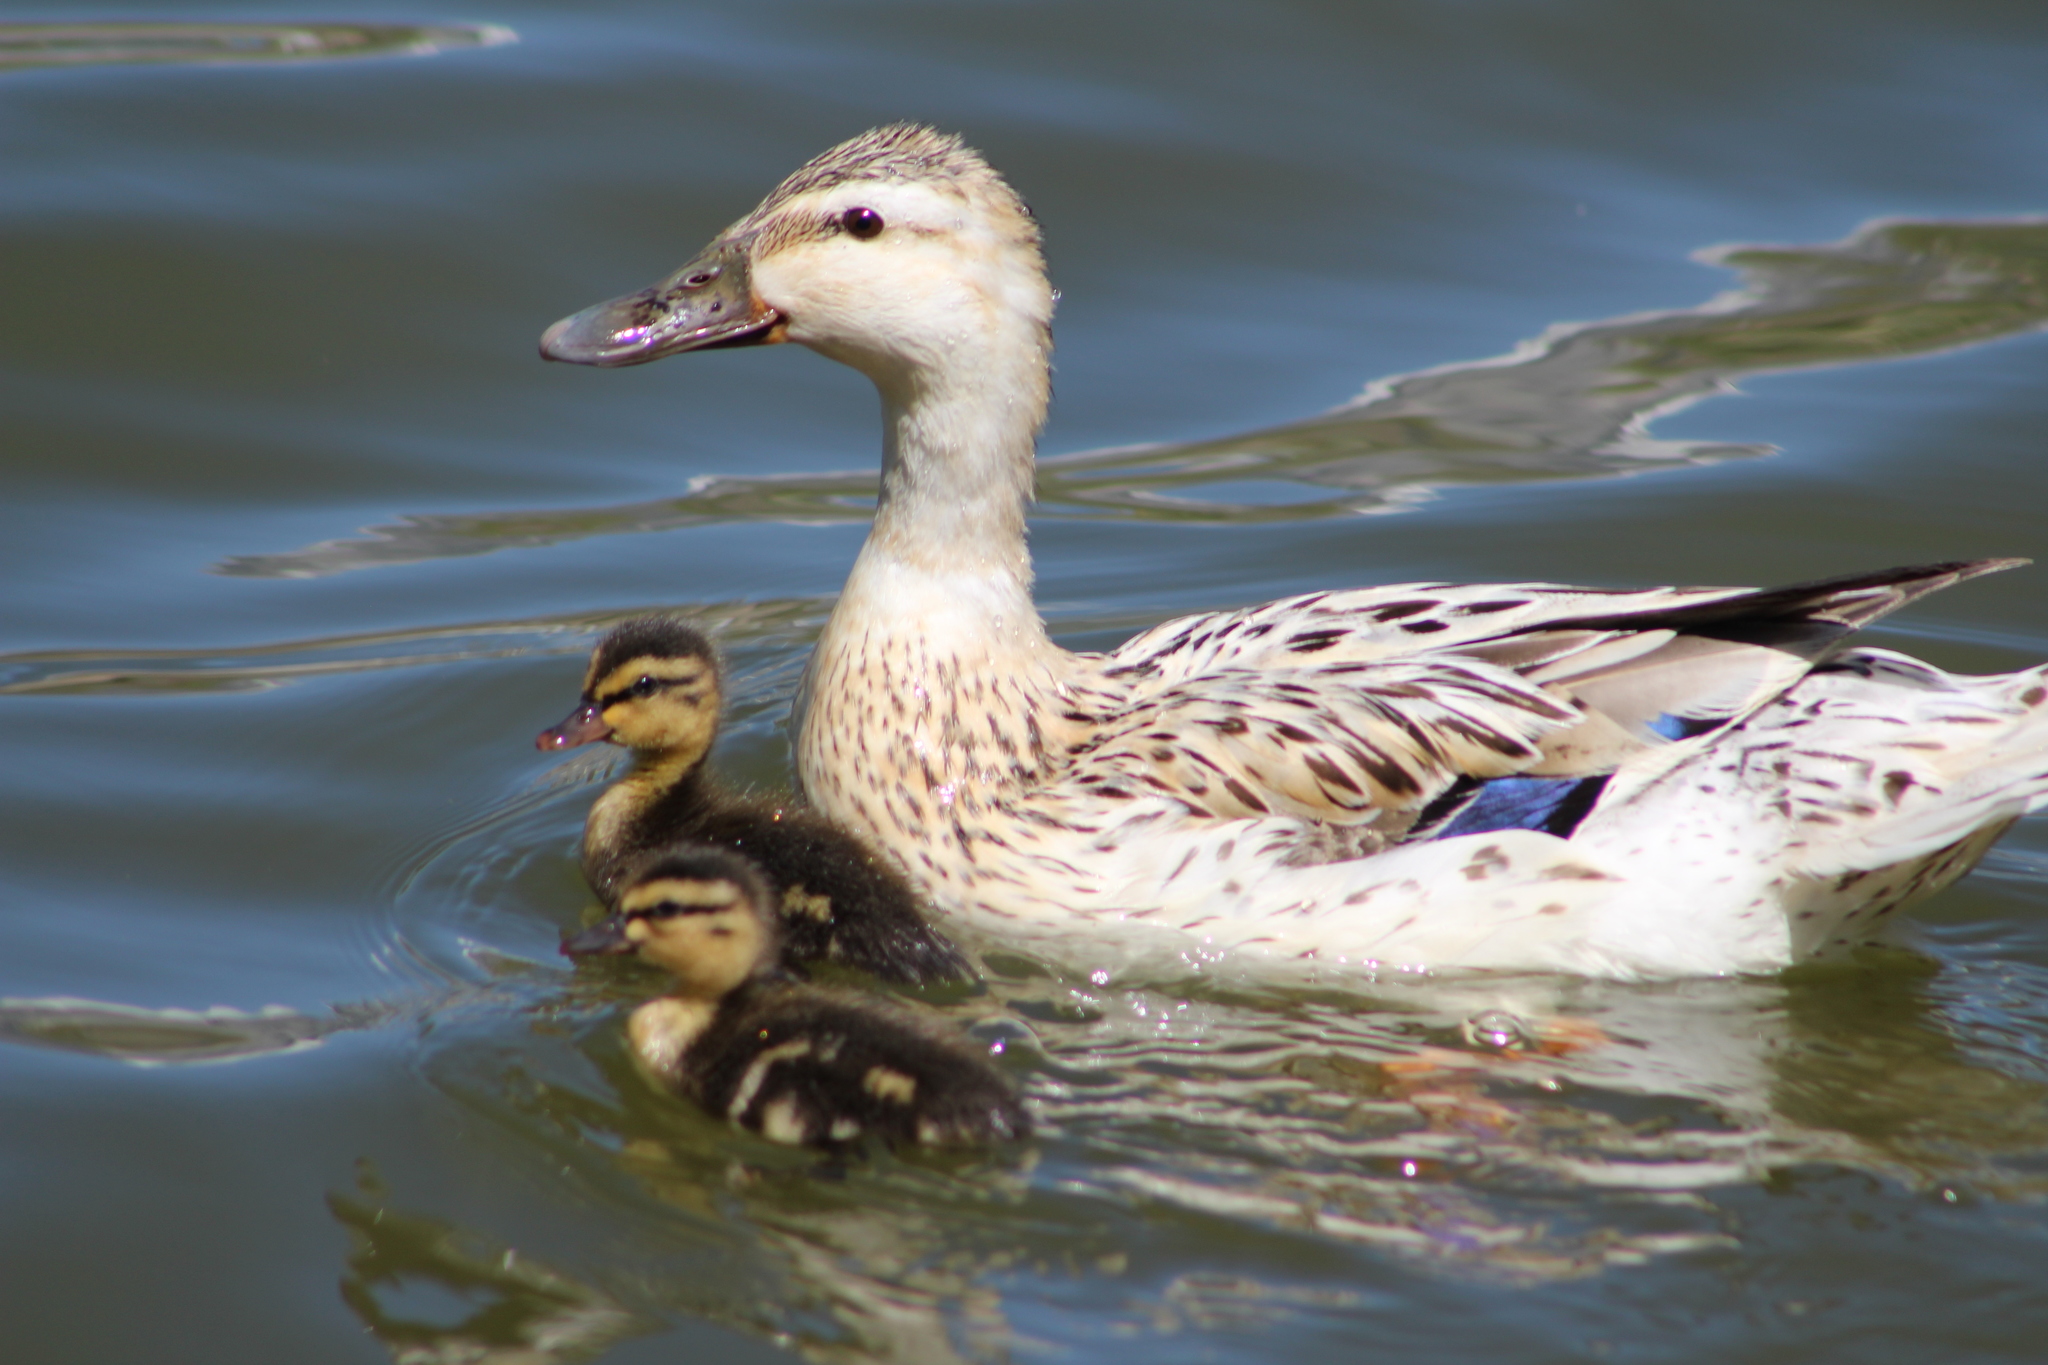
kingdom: Animalia
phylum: Chordata
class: Aves
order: Anseriformes
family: Anatidae
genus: Anas
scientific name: Anas platyrhynchos
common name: Mallard
